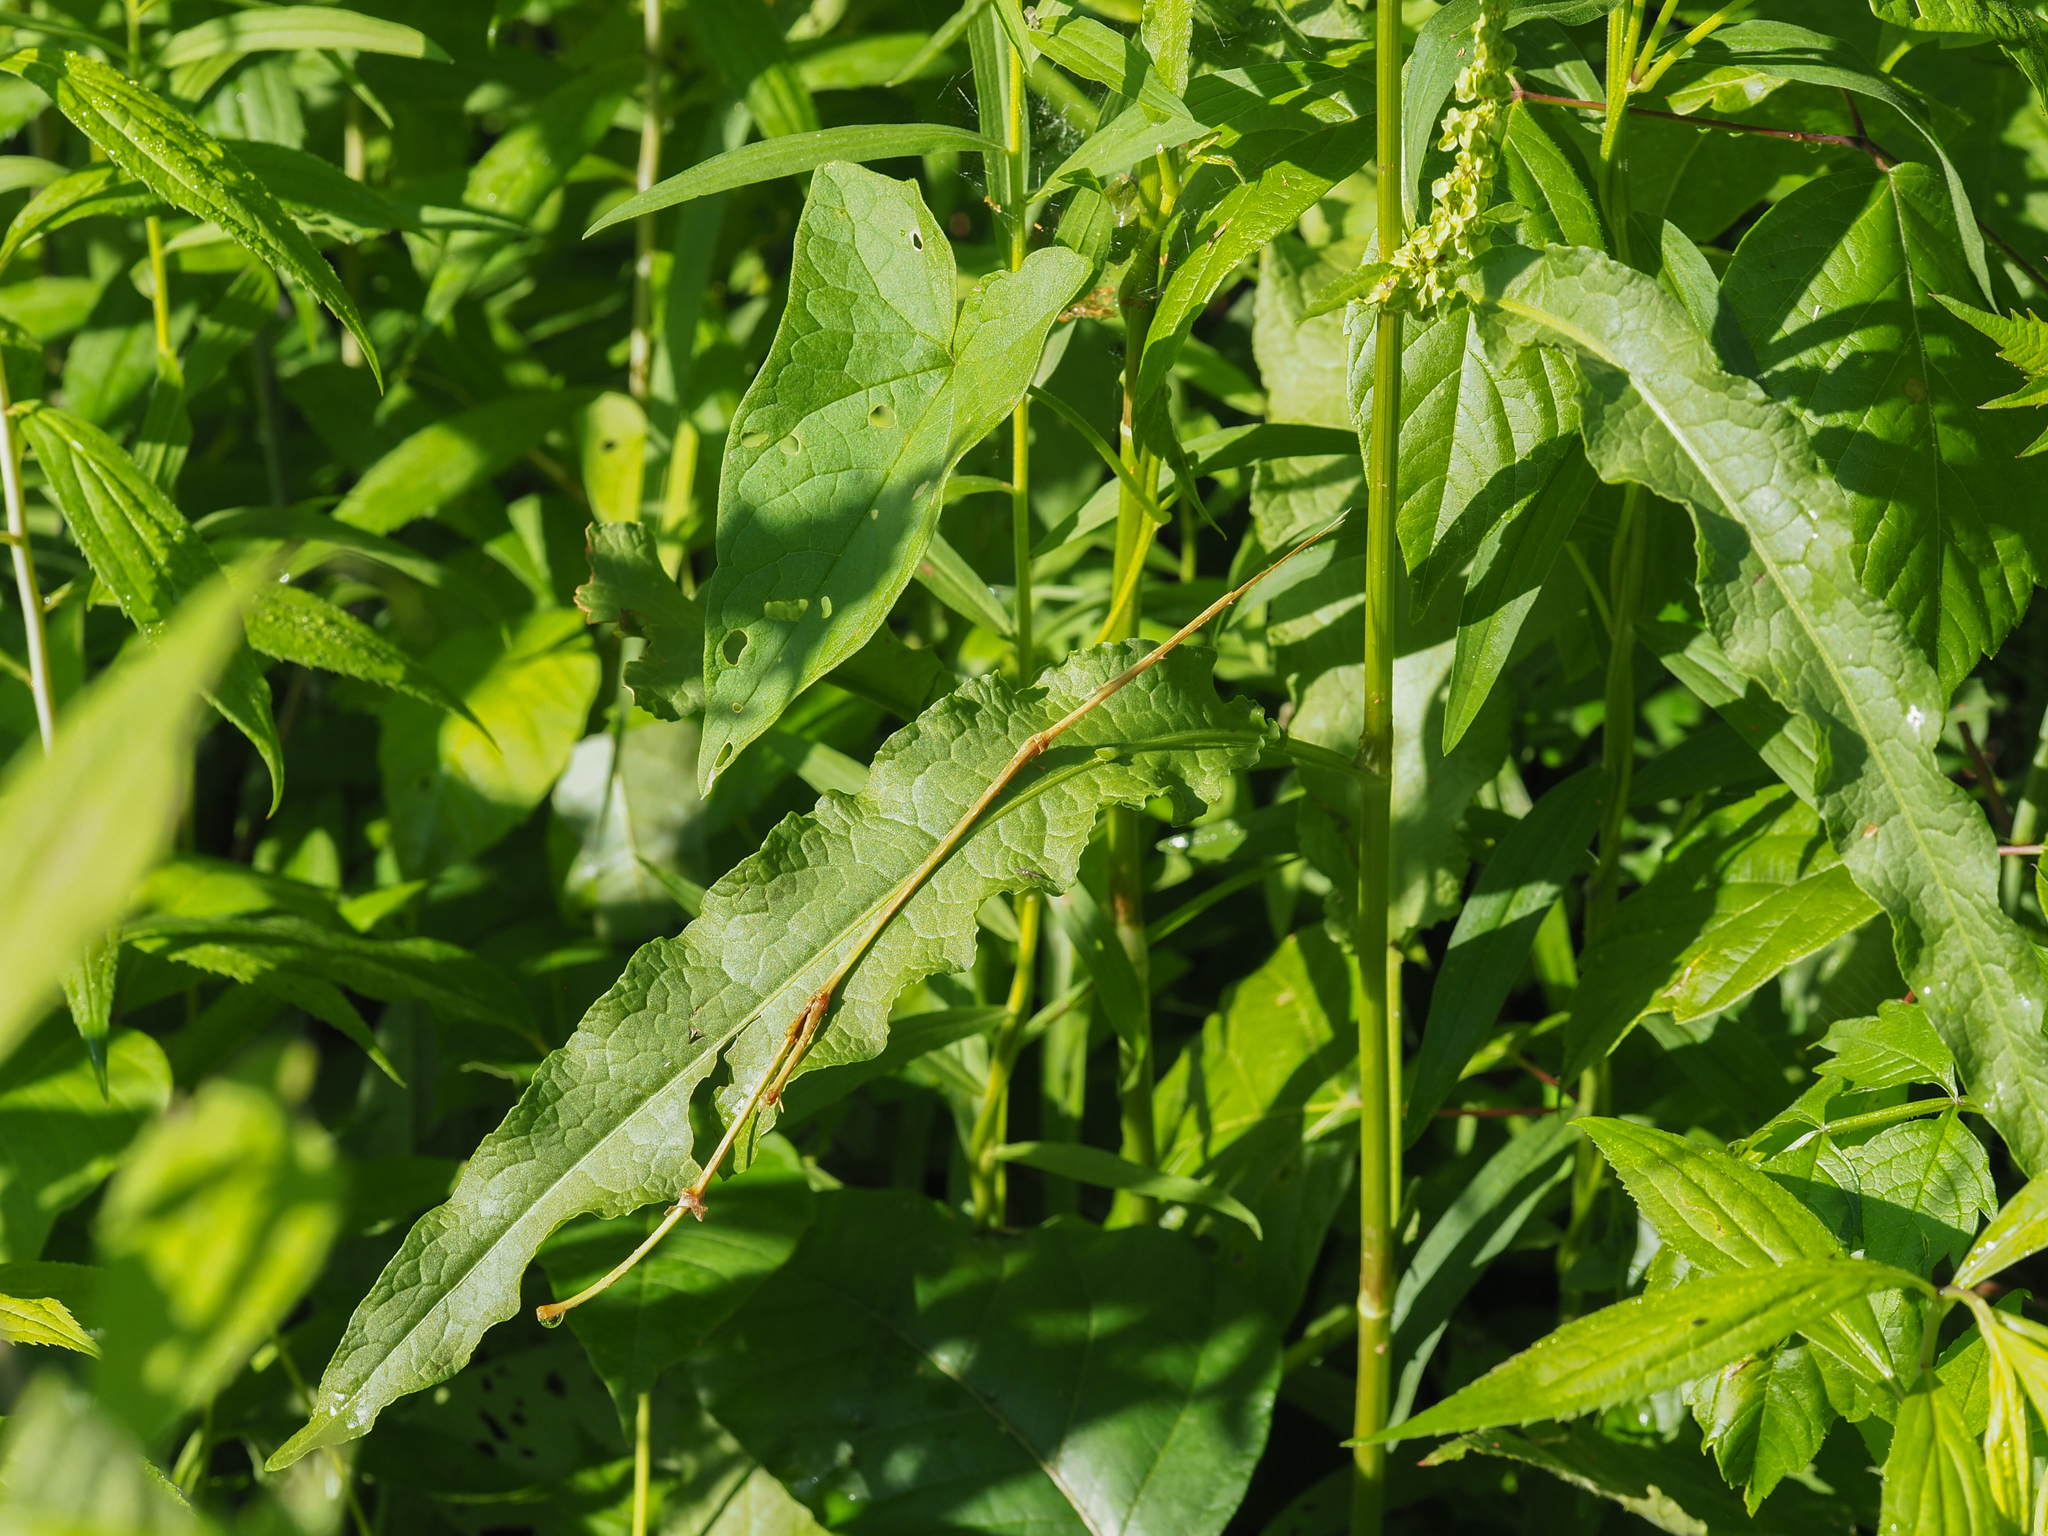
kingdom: Plantae
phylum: Tracheophyta
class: Magnoliopsida
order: Caryophyllales
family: Polygonaceae
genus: Rumex
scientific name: Rumex crispus
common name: Curled dock
